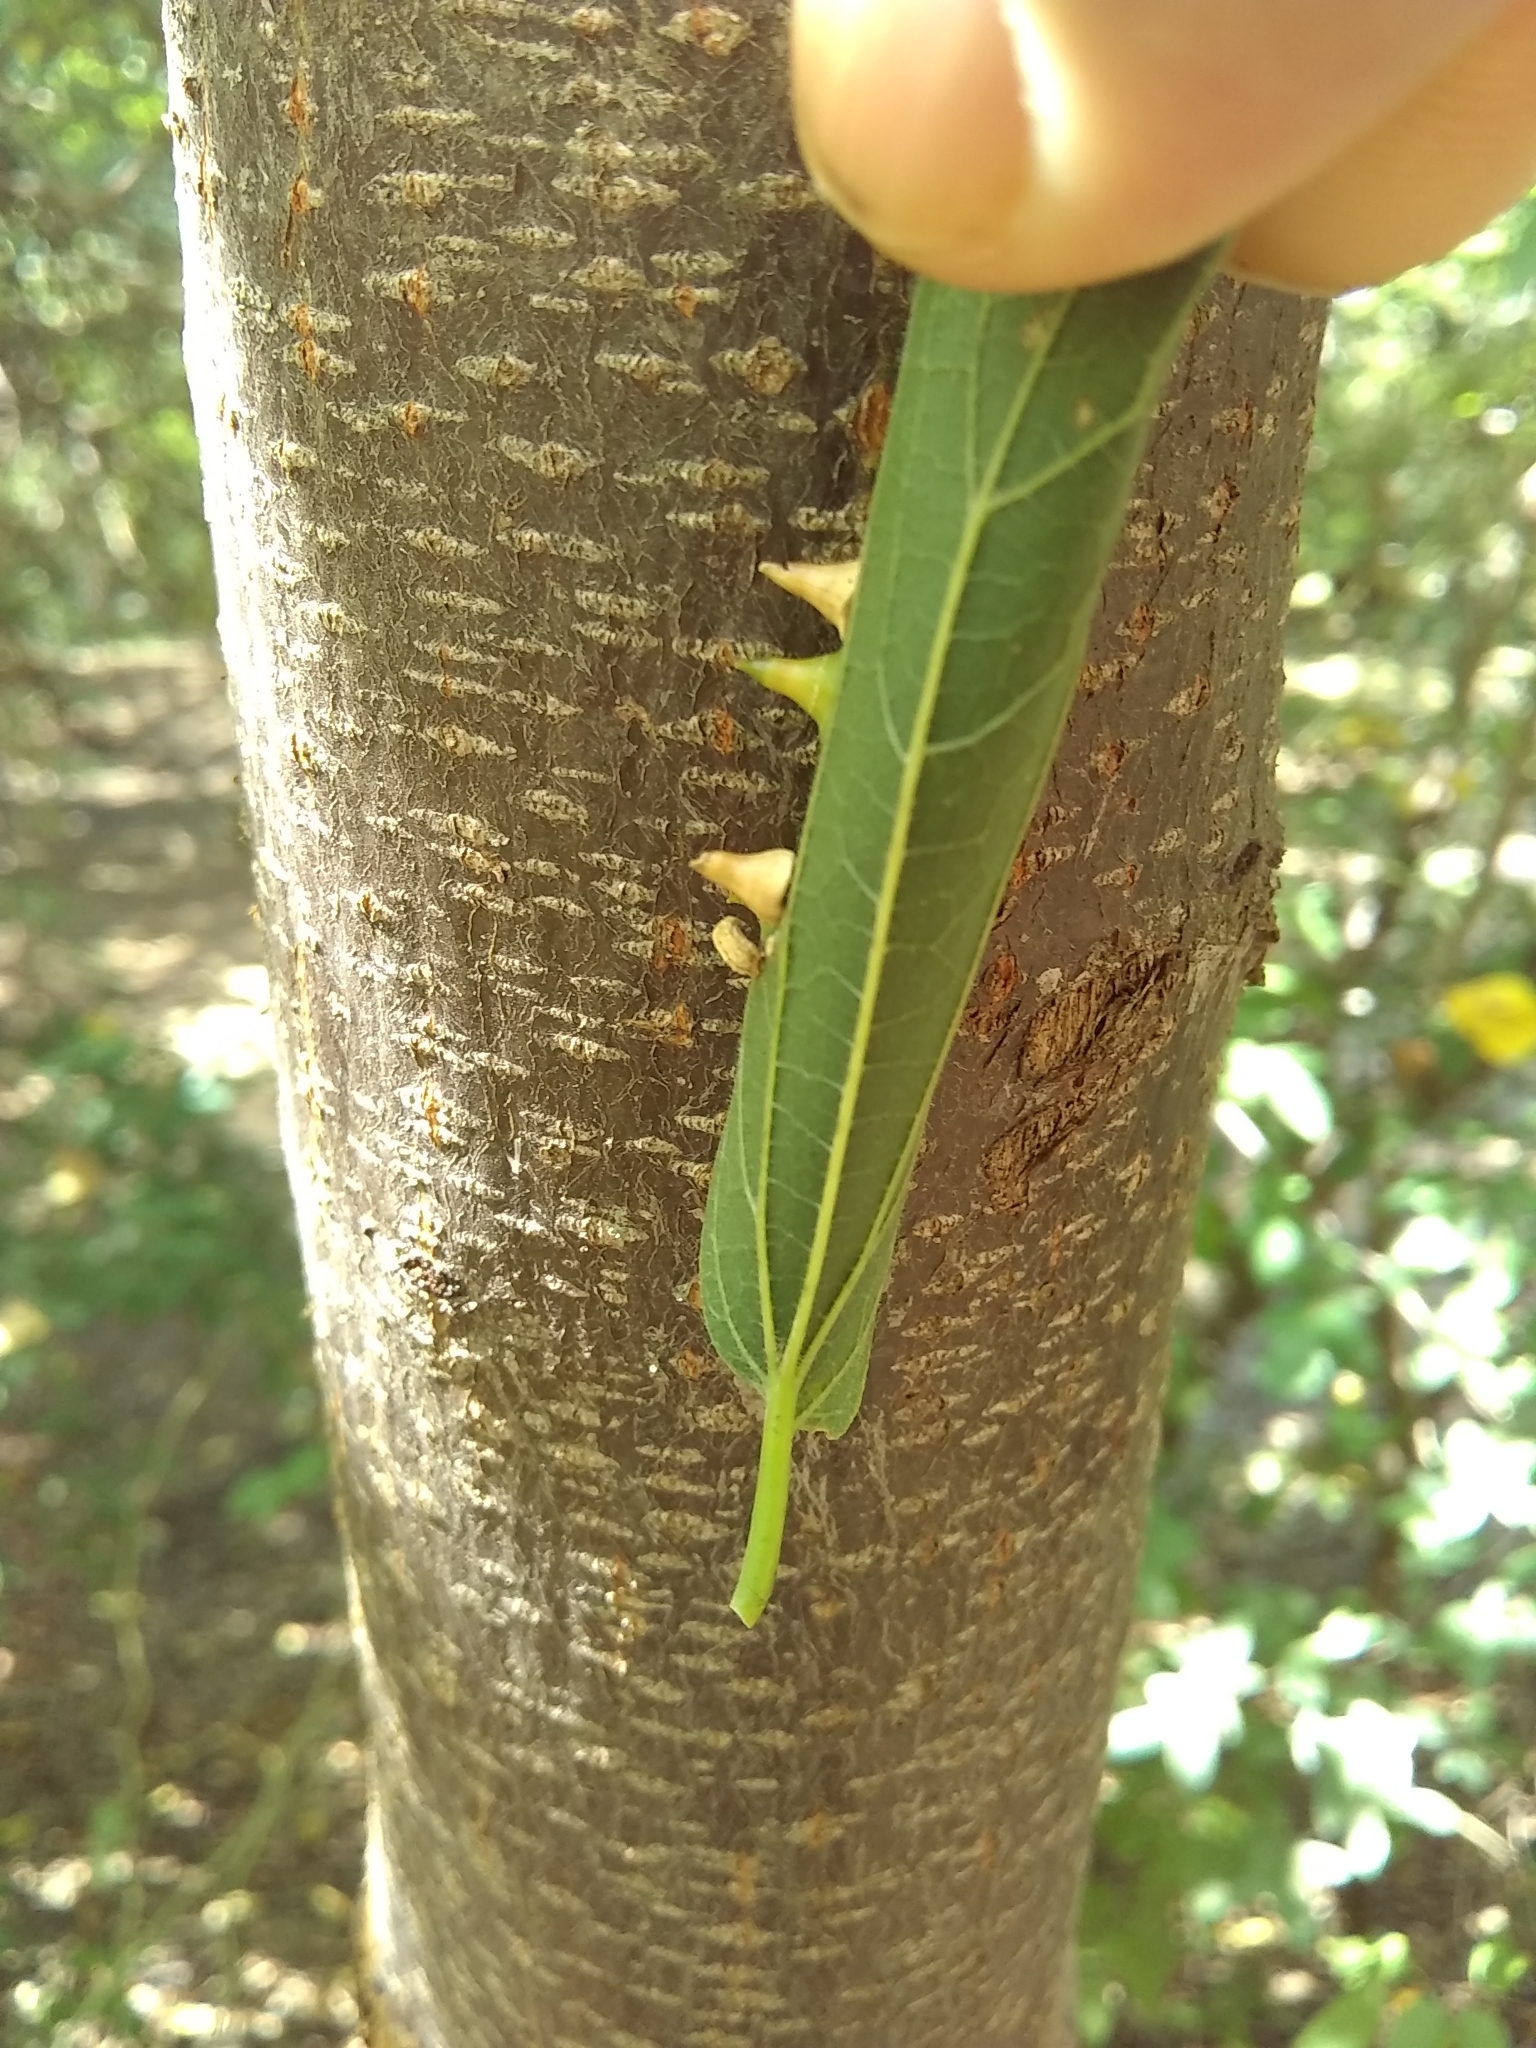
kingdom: Animalia
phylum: Arthropoda
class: Insecta
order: Diptera
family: Cecidomyiidae
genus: Celticecis
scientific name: Celticecis spiniformis
